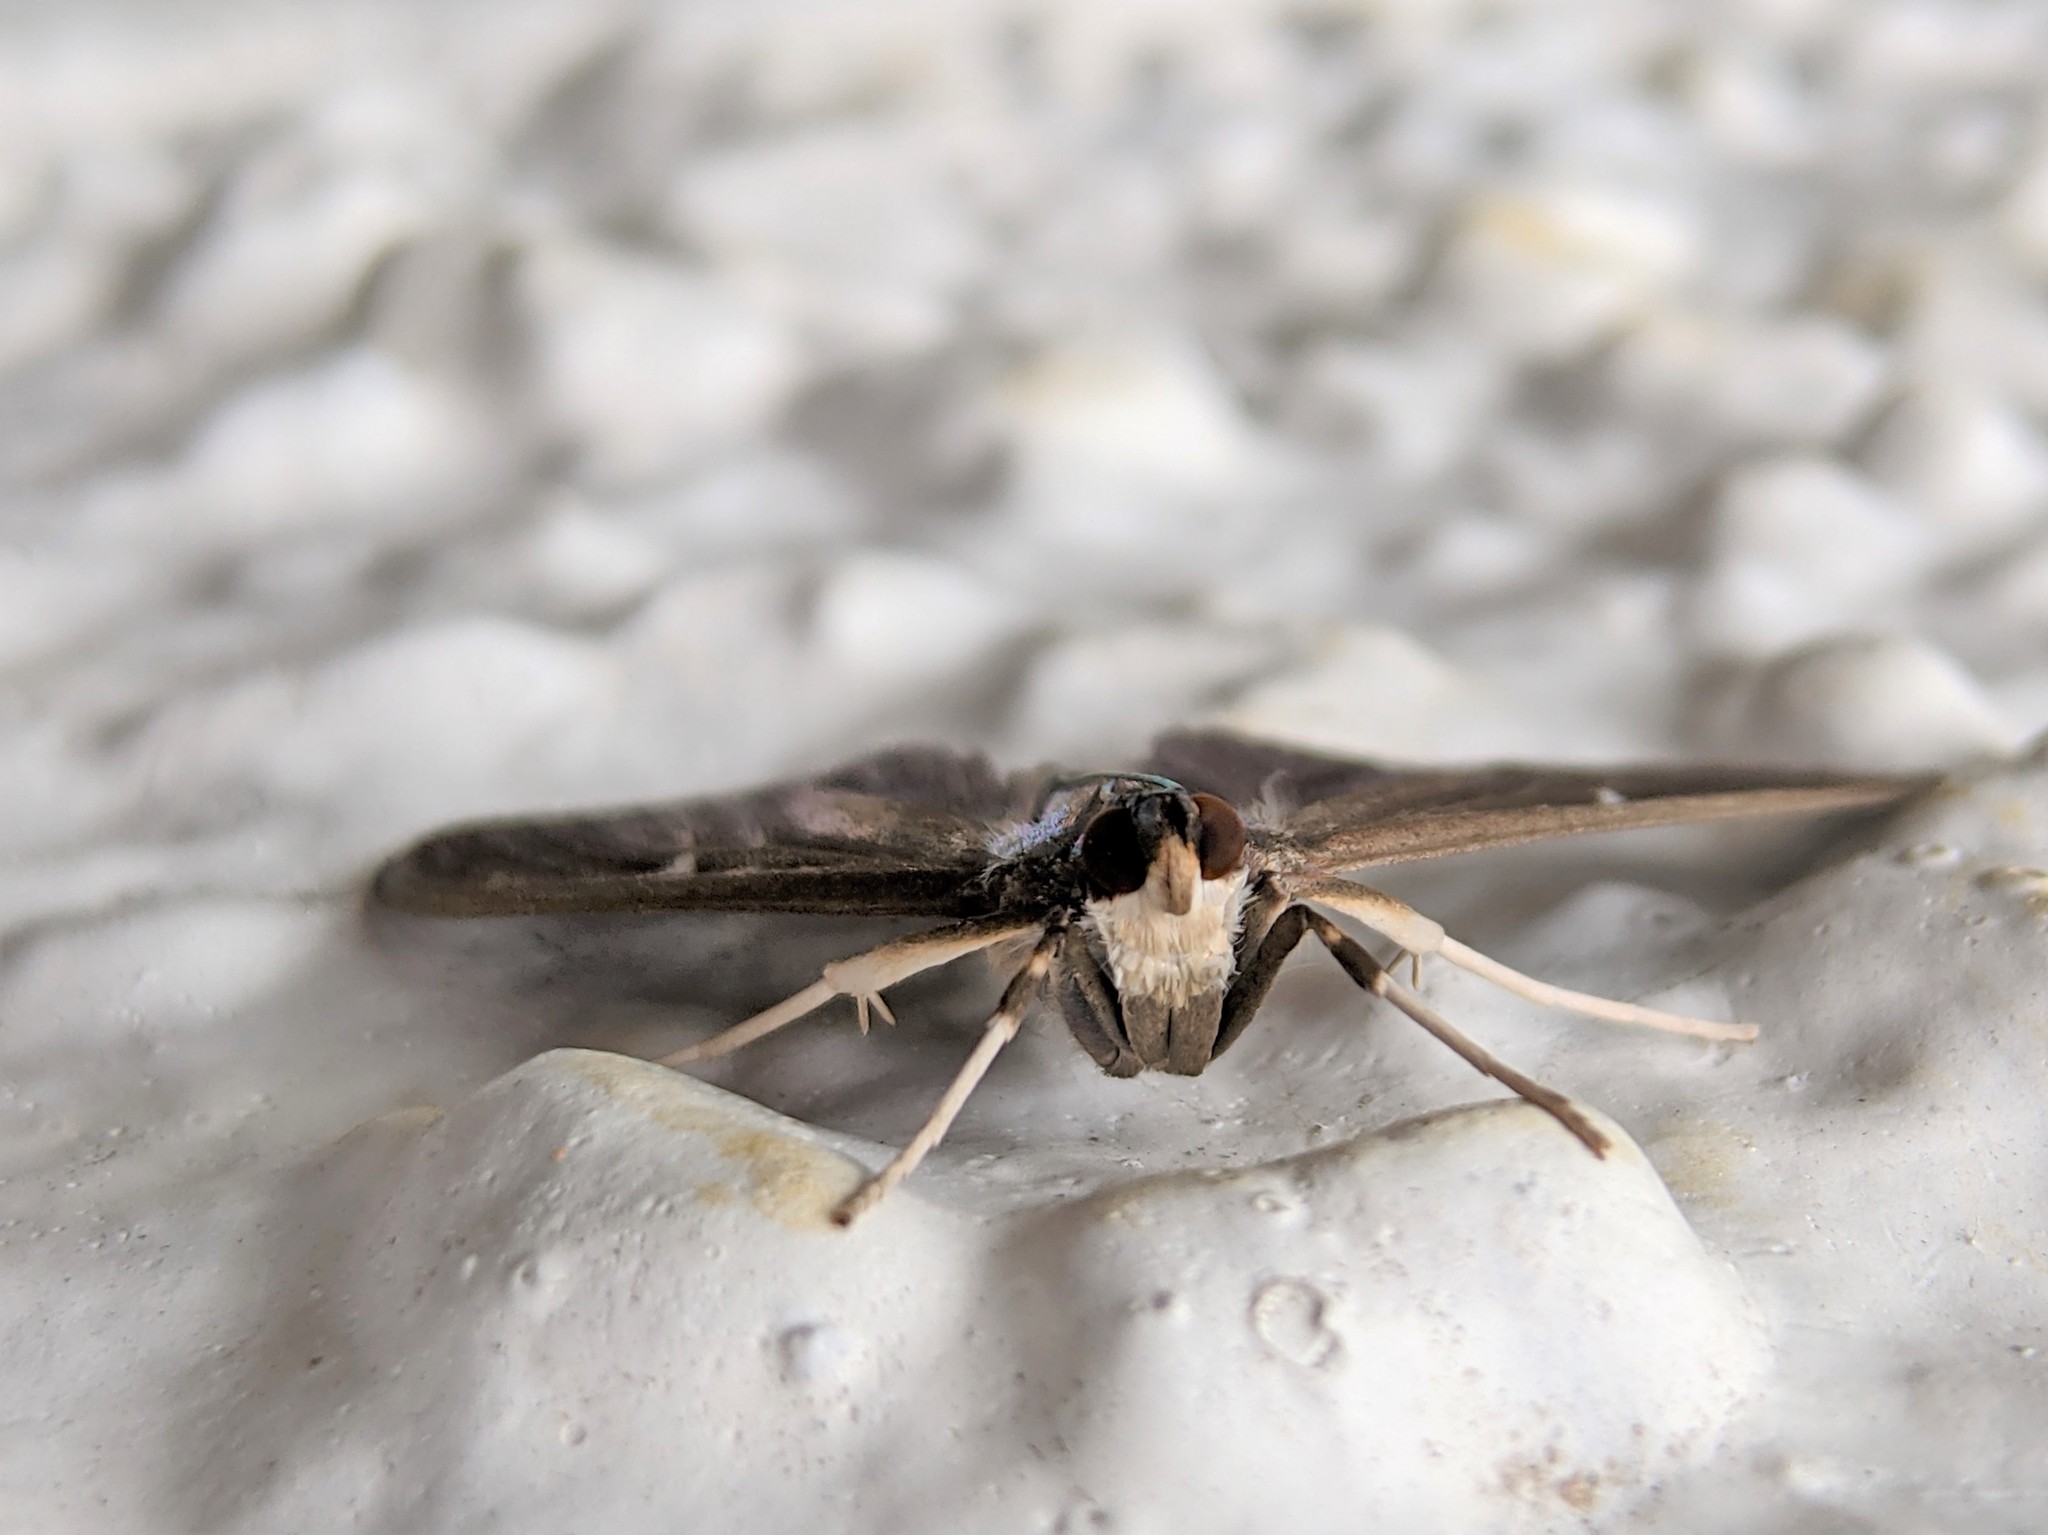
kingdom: Animalia
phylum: Arthropoda
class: Insecta
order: Lepidoptera
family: Crambidae
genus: Cydalima
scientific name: Cydalima perspectalis
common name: Box tree moth
